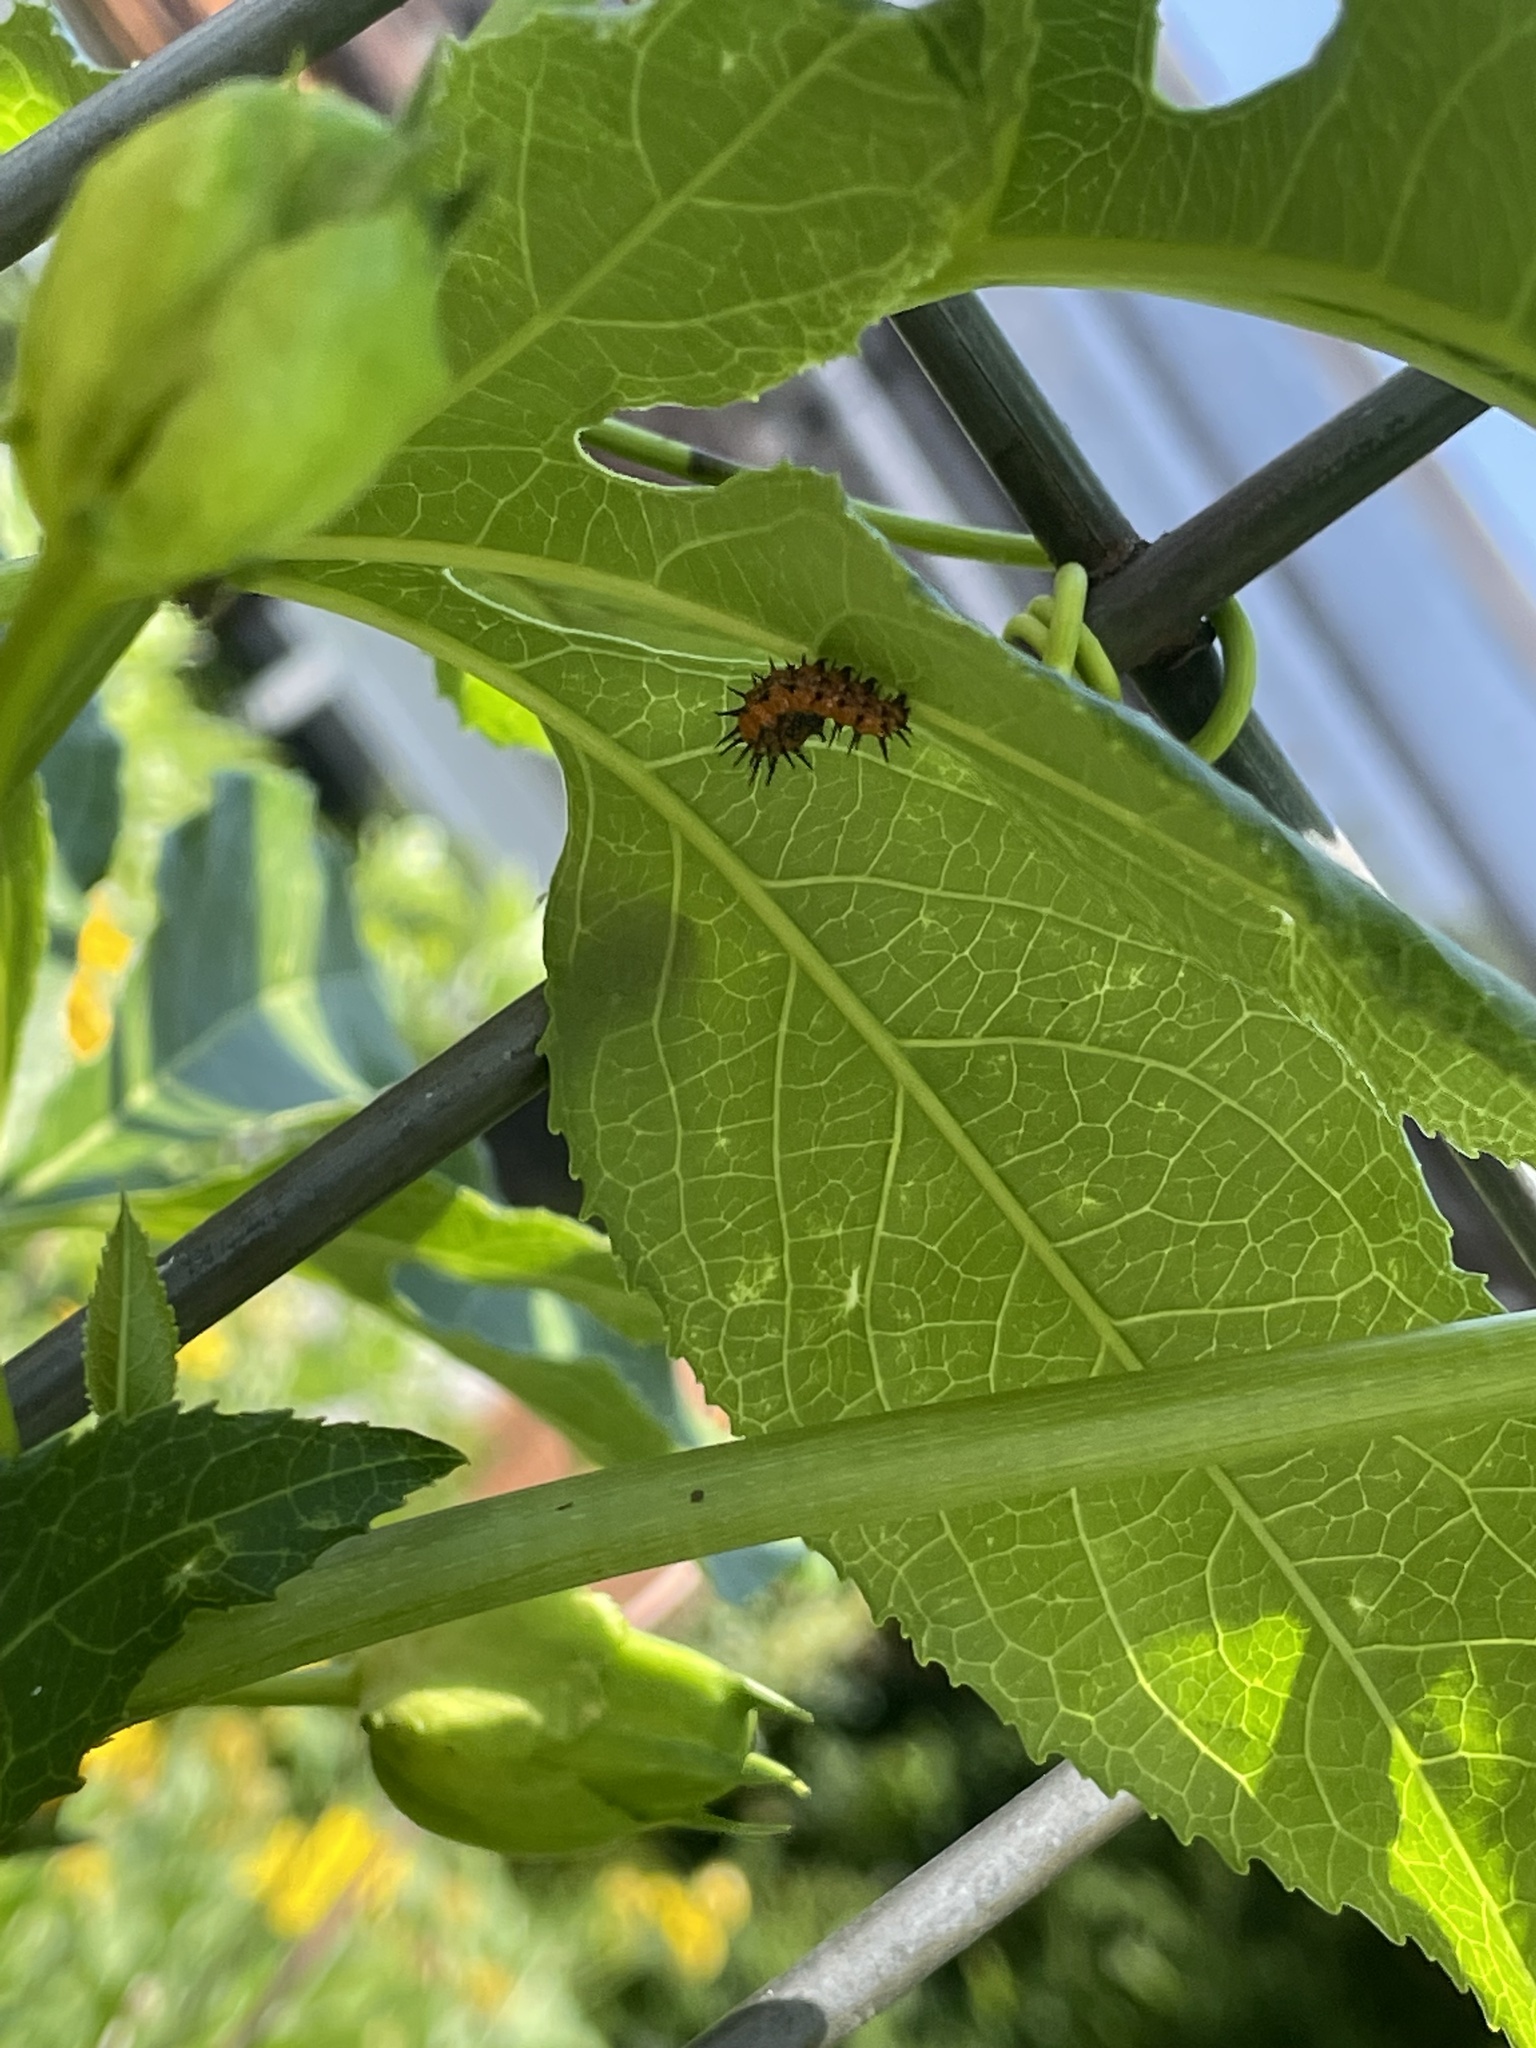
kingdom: Animalia
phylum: Arthropoda
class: Insecta
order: Lepidoptera
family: Nymphalidae
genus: Dione
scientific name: Dione vanillae
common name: Gulf fritillary
